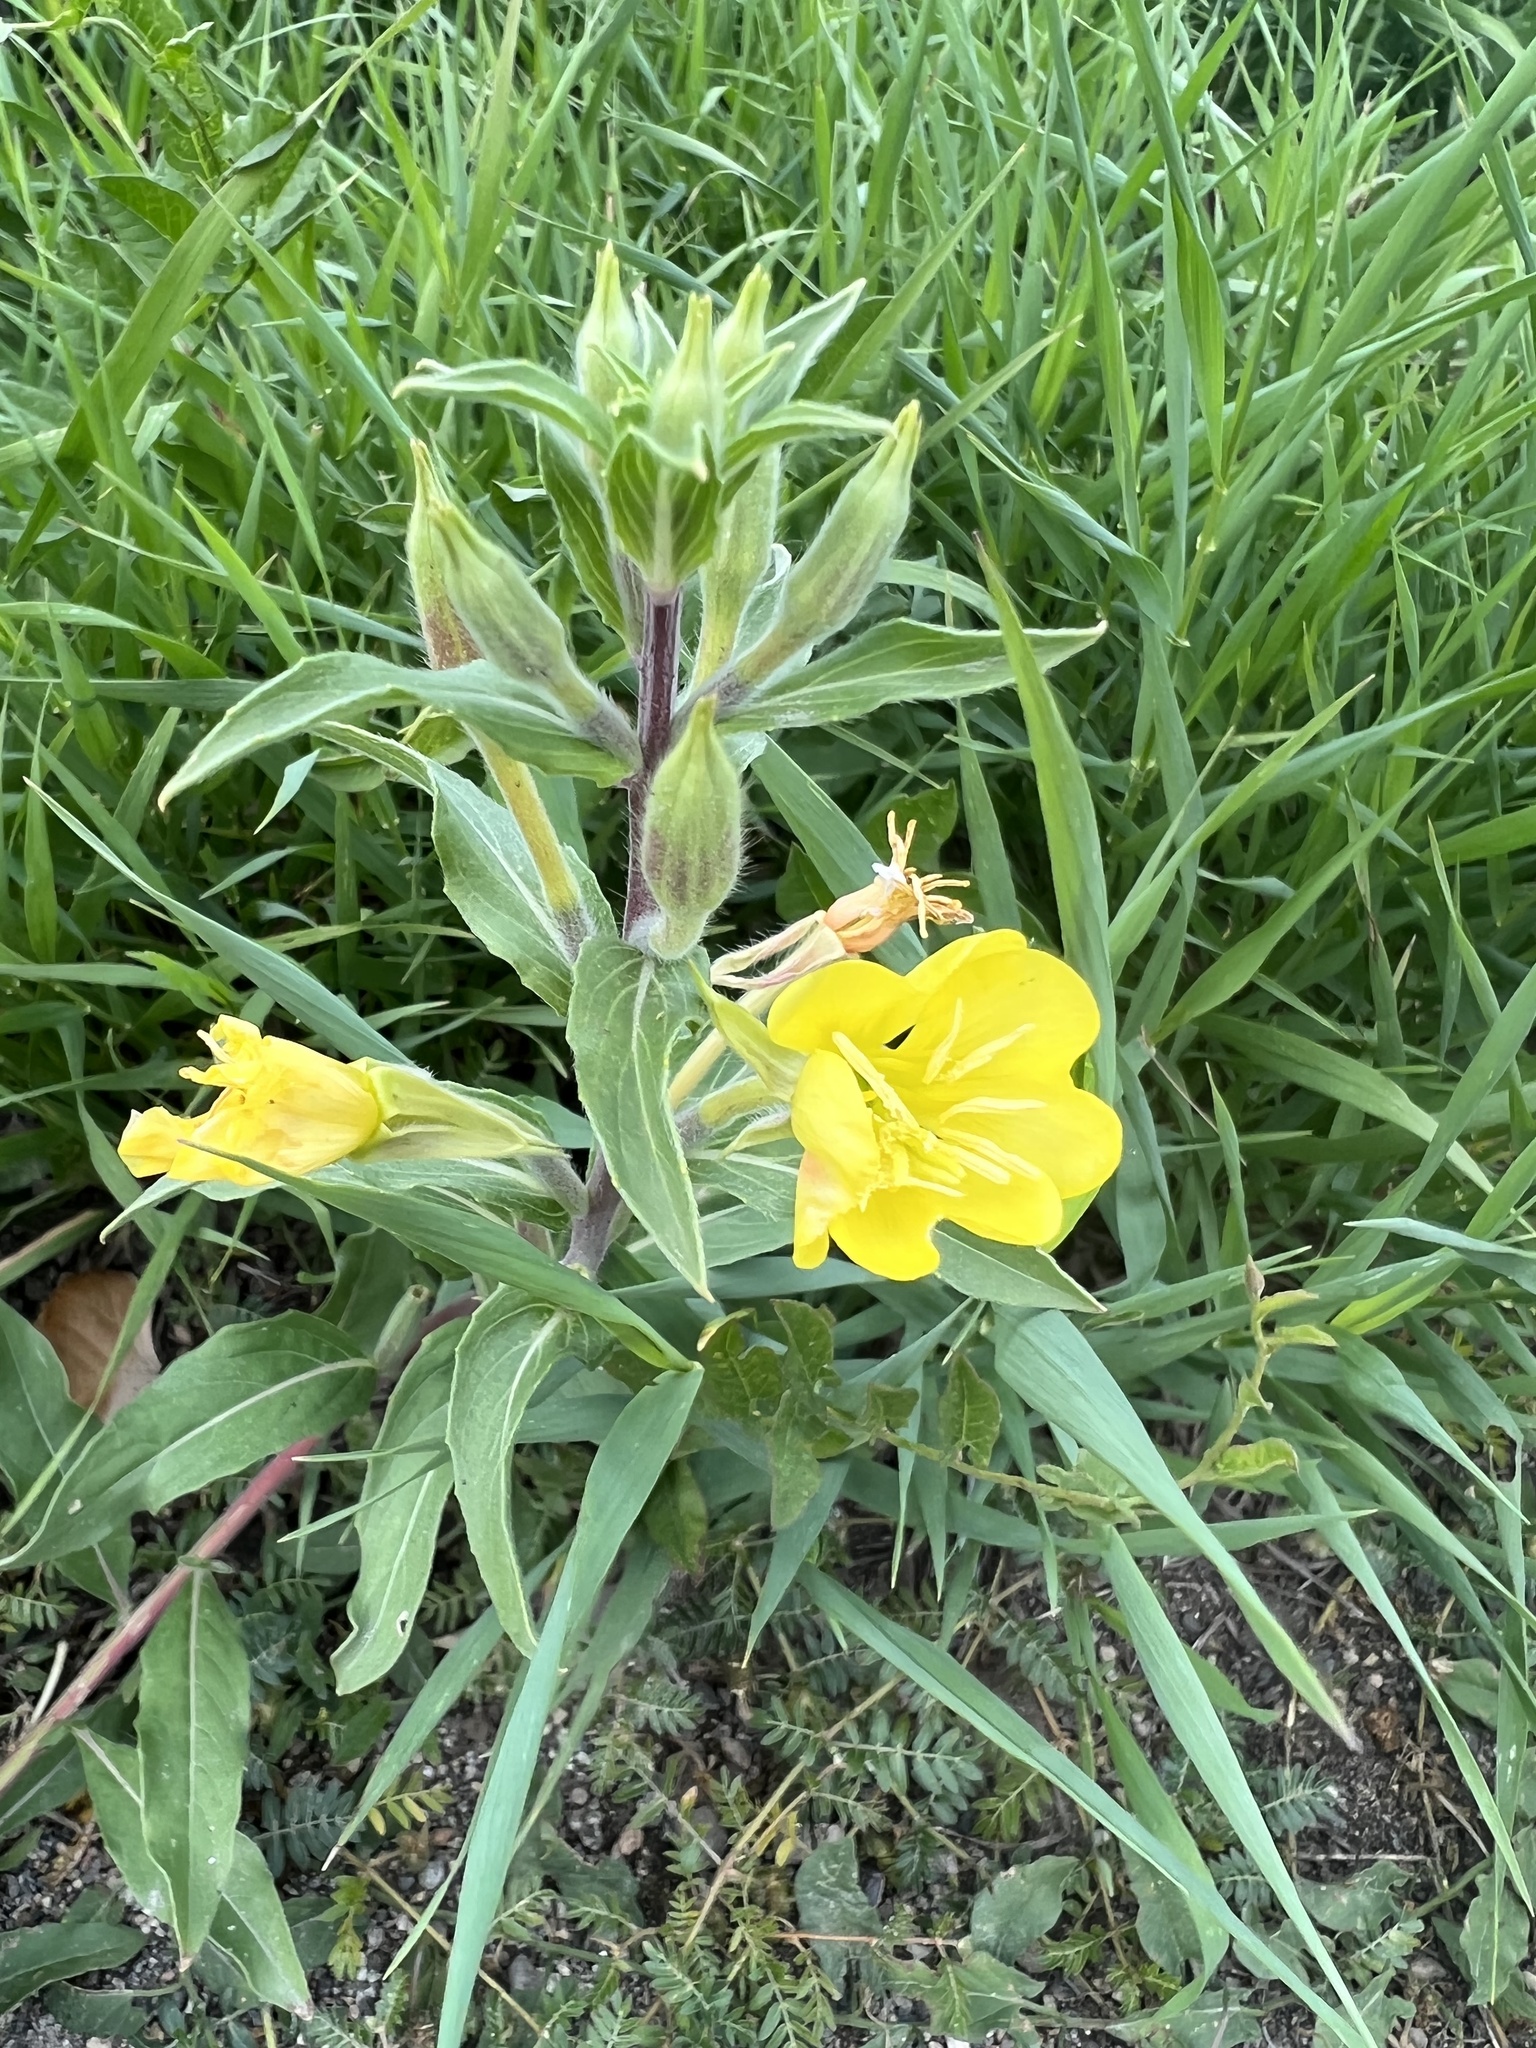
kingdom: Plantae
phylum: Tracheophyta
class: Magnoliopsida
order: Myrtales
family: Onagraceae
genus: Oenothera
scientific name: Oenothera villosa
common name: Hairy evening-primrose
